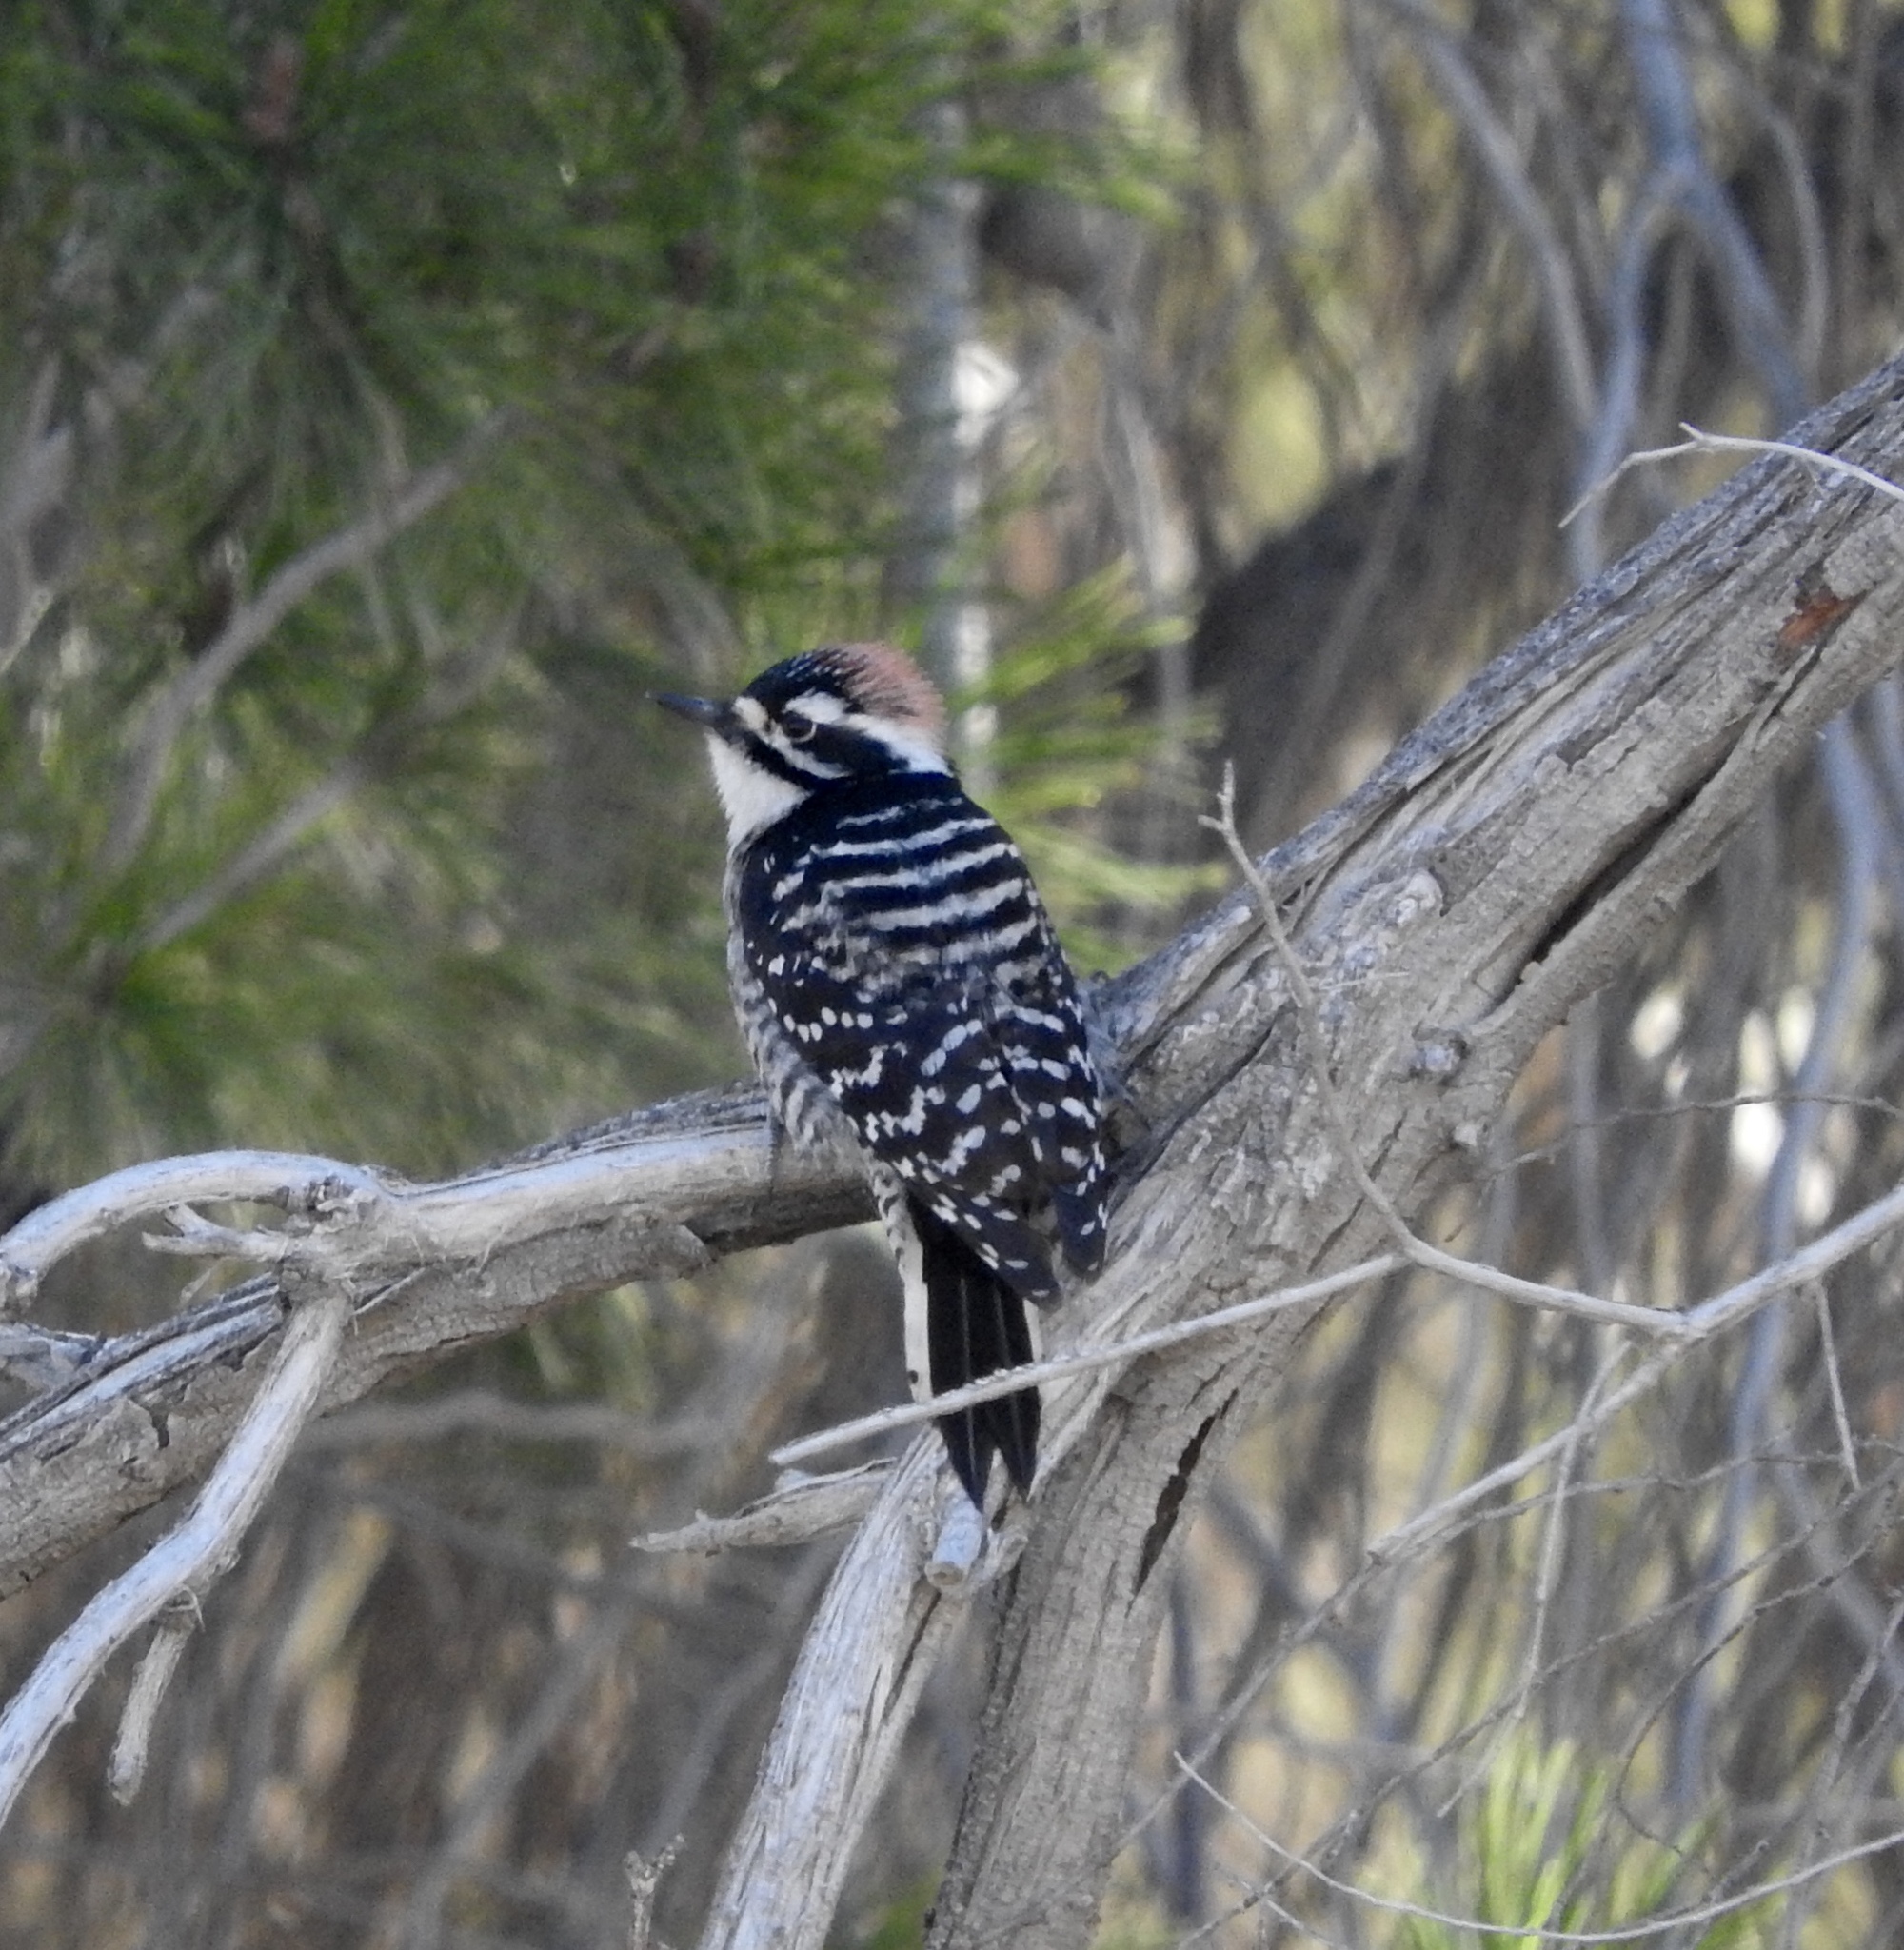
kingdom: Animalia
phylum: Chordata
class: Aves
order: Piciformes
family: Picidae
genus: Dryobates
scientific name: Dryobates nuttallii
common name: Nuttall's woodpecker
